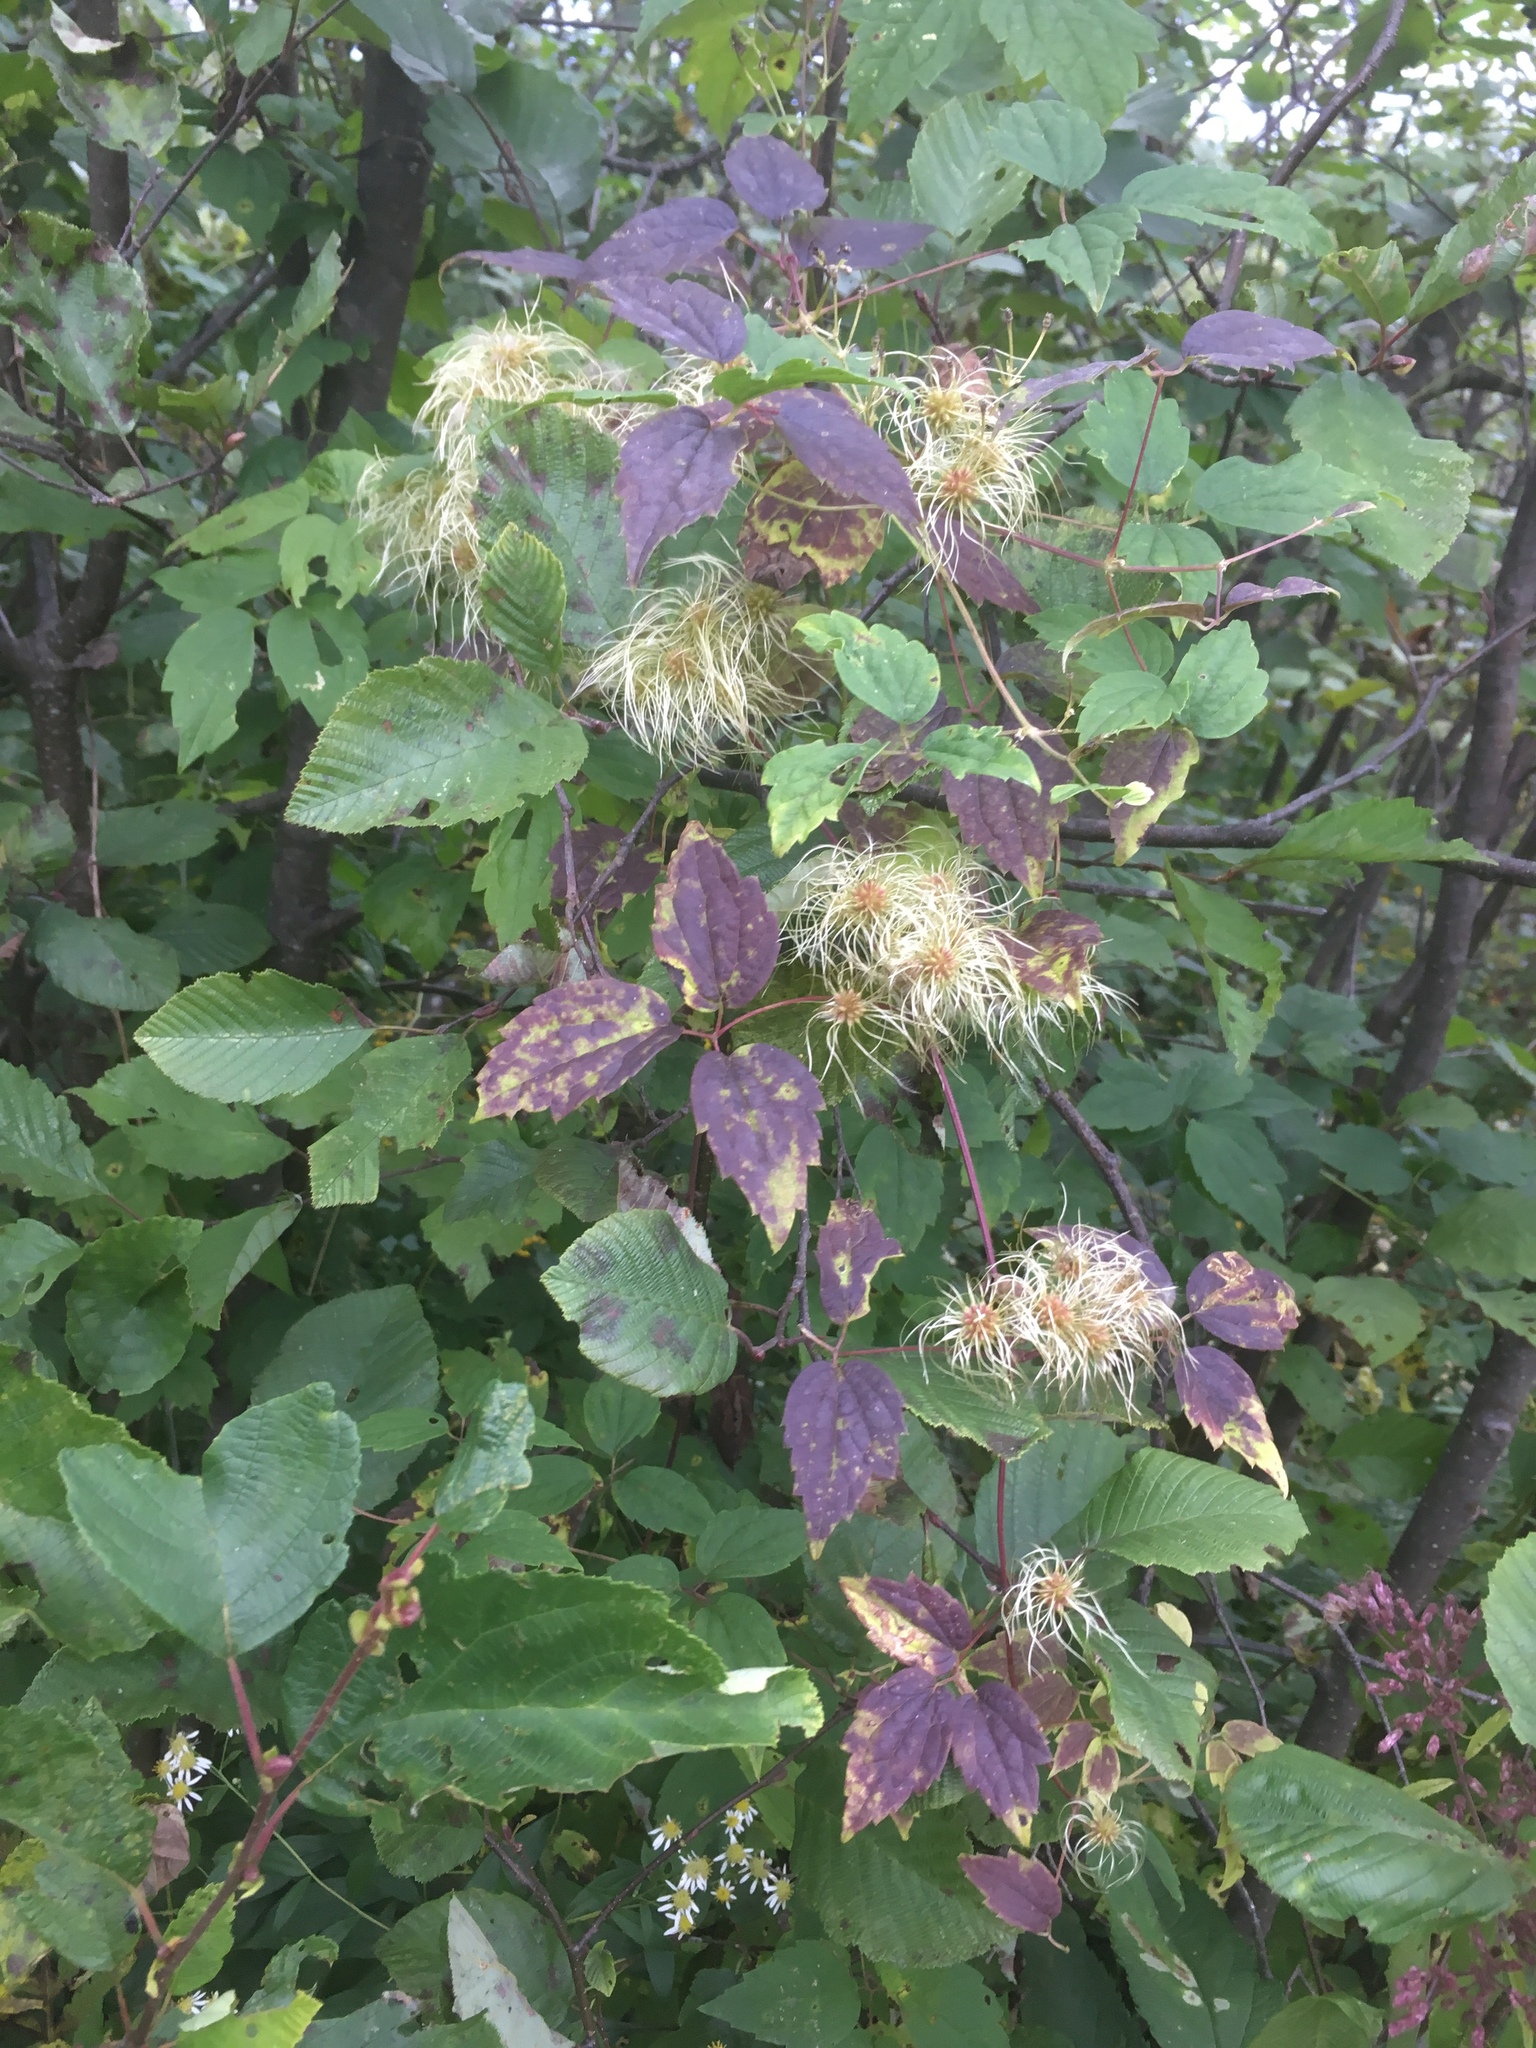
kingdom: Plantae
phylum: Tracheophyta
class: Magnoliopsida
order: Ranunculales
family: Ranunculaceae
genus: Clematis
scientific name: Clematis virginiana
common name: Virgin's-bower
